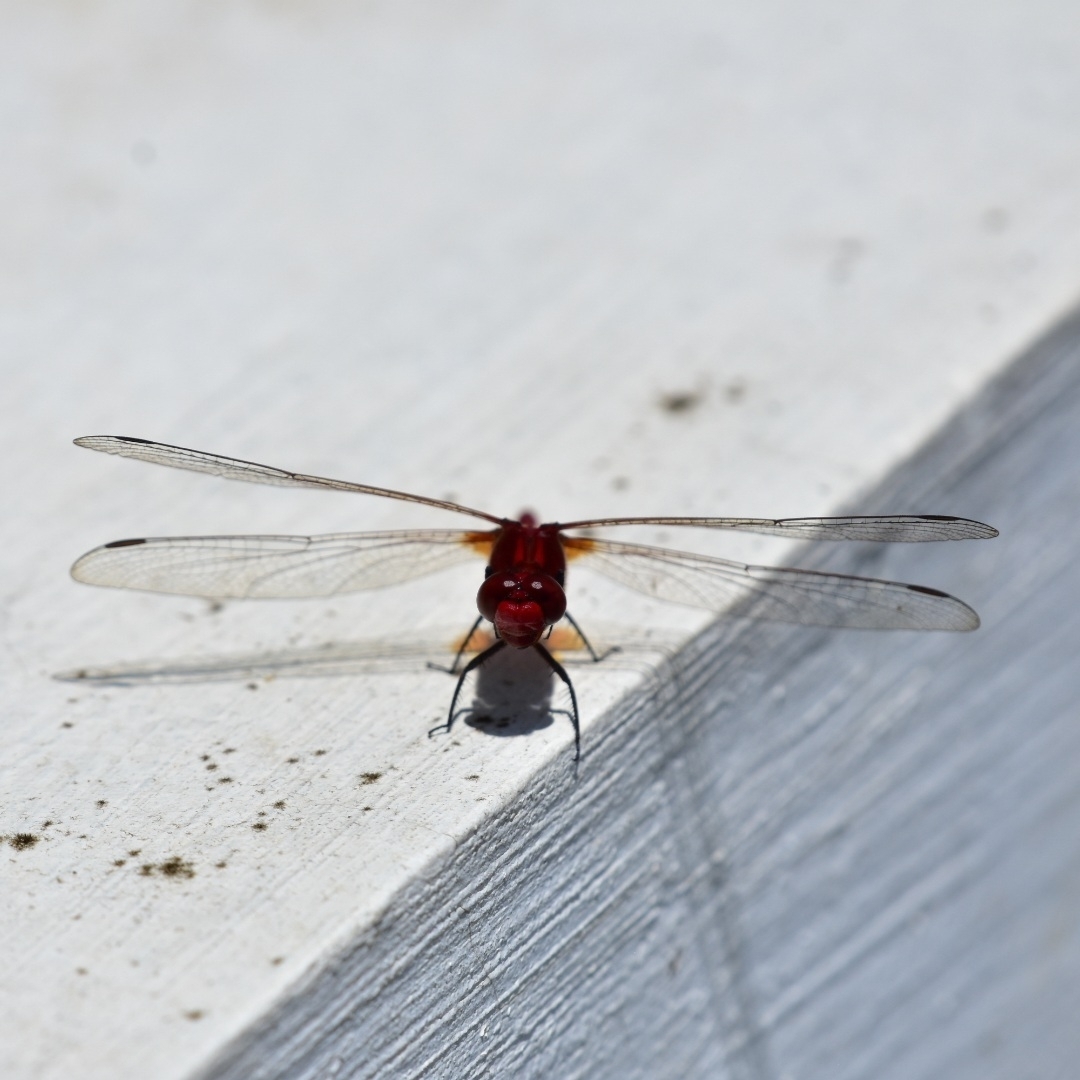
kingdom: Animalia
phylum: Arthropoda
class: Insecta
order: Odonata
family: Libellulidae
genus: Rhodothemis
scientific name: Rhodothemis rufa
